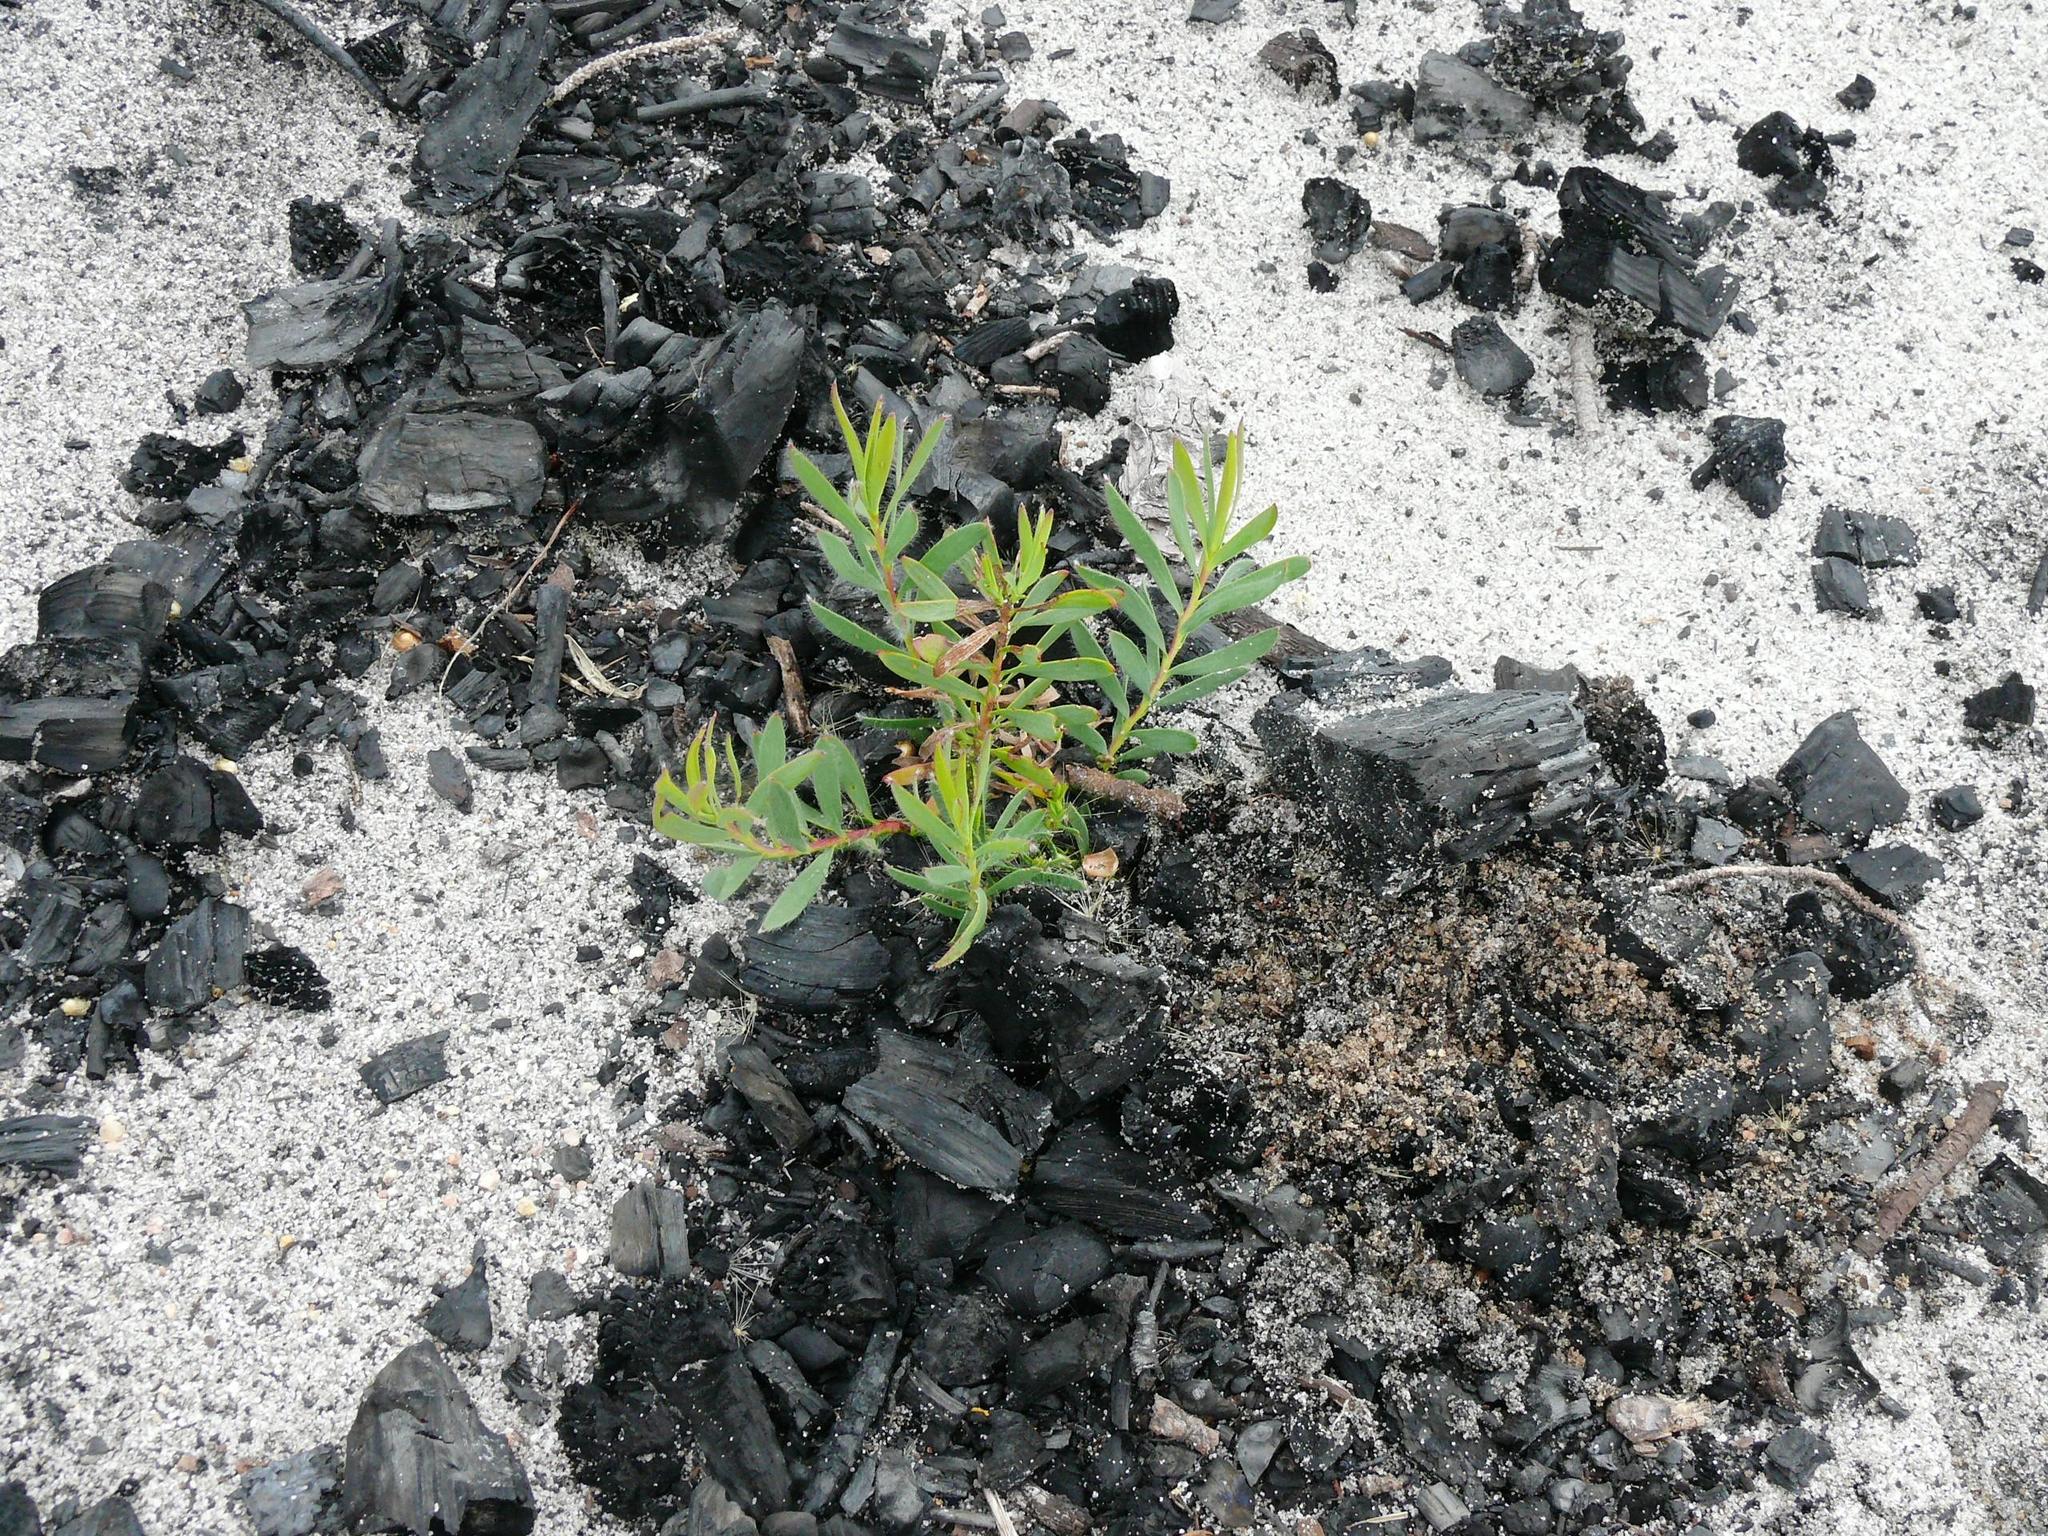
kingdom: Plantae
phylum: Tracheophyta
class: Magnoliopsida
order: Proteales
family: Proteaceae
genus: Leucadendron
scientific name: Leucadendron salignum
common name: Common sunshine conebush
